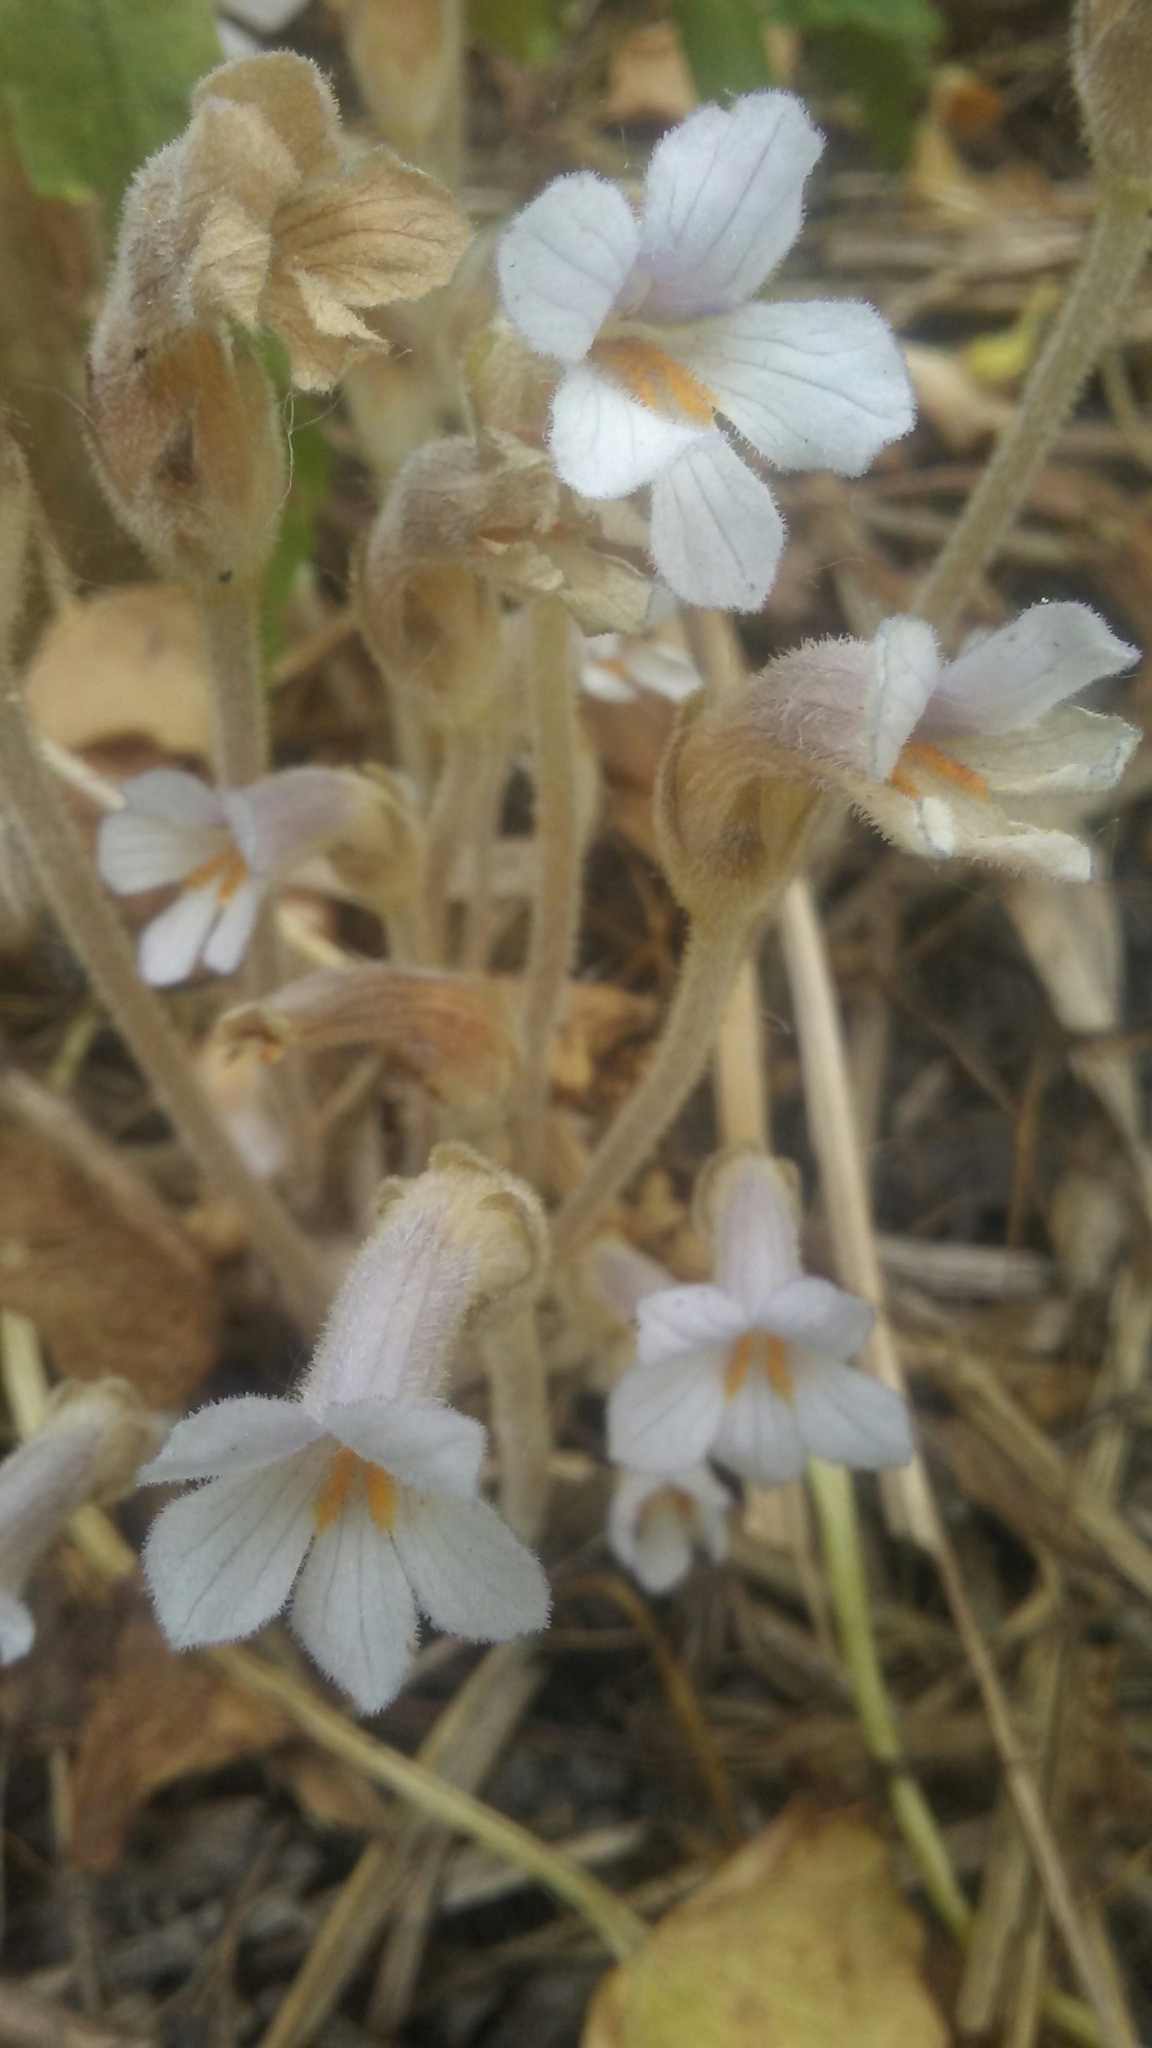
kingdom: Plantae
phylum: Tracheophyta
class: Magnoliopsida
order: Lamiales
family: Orobanchaceae
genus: Aphyllon
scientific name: Aphyllon uniflorum
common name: One-flowered broomrape
